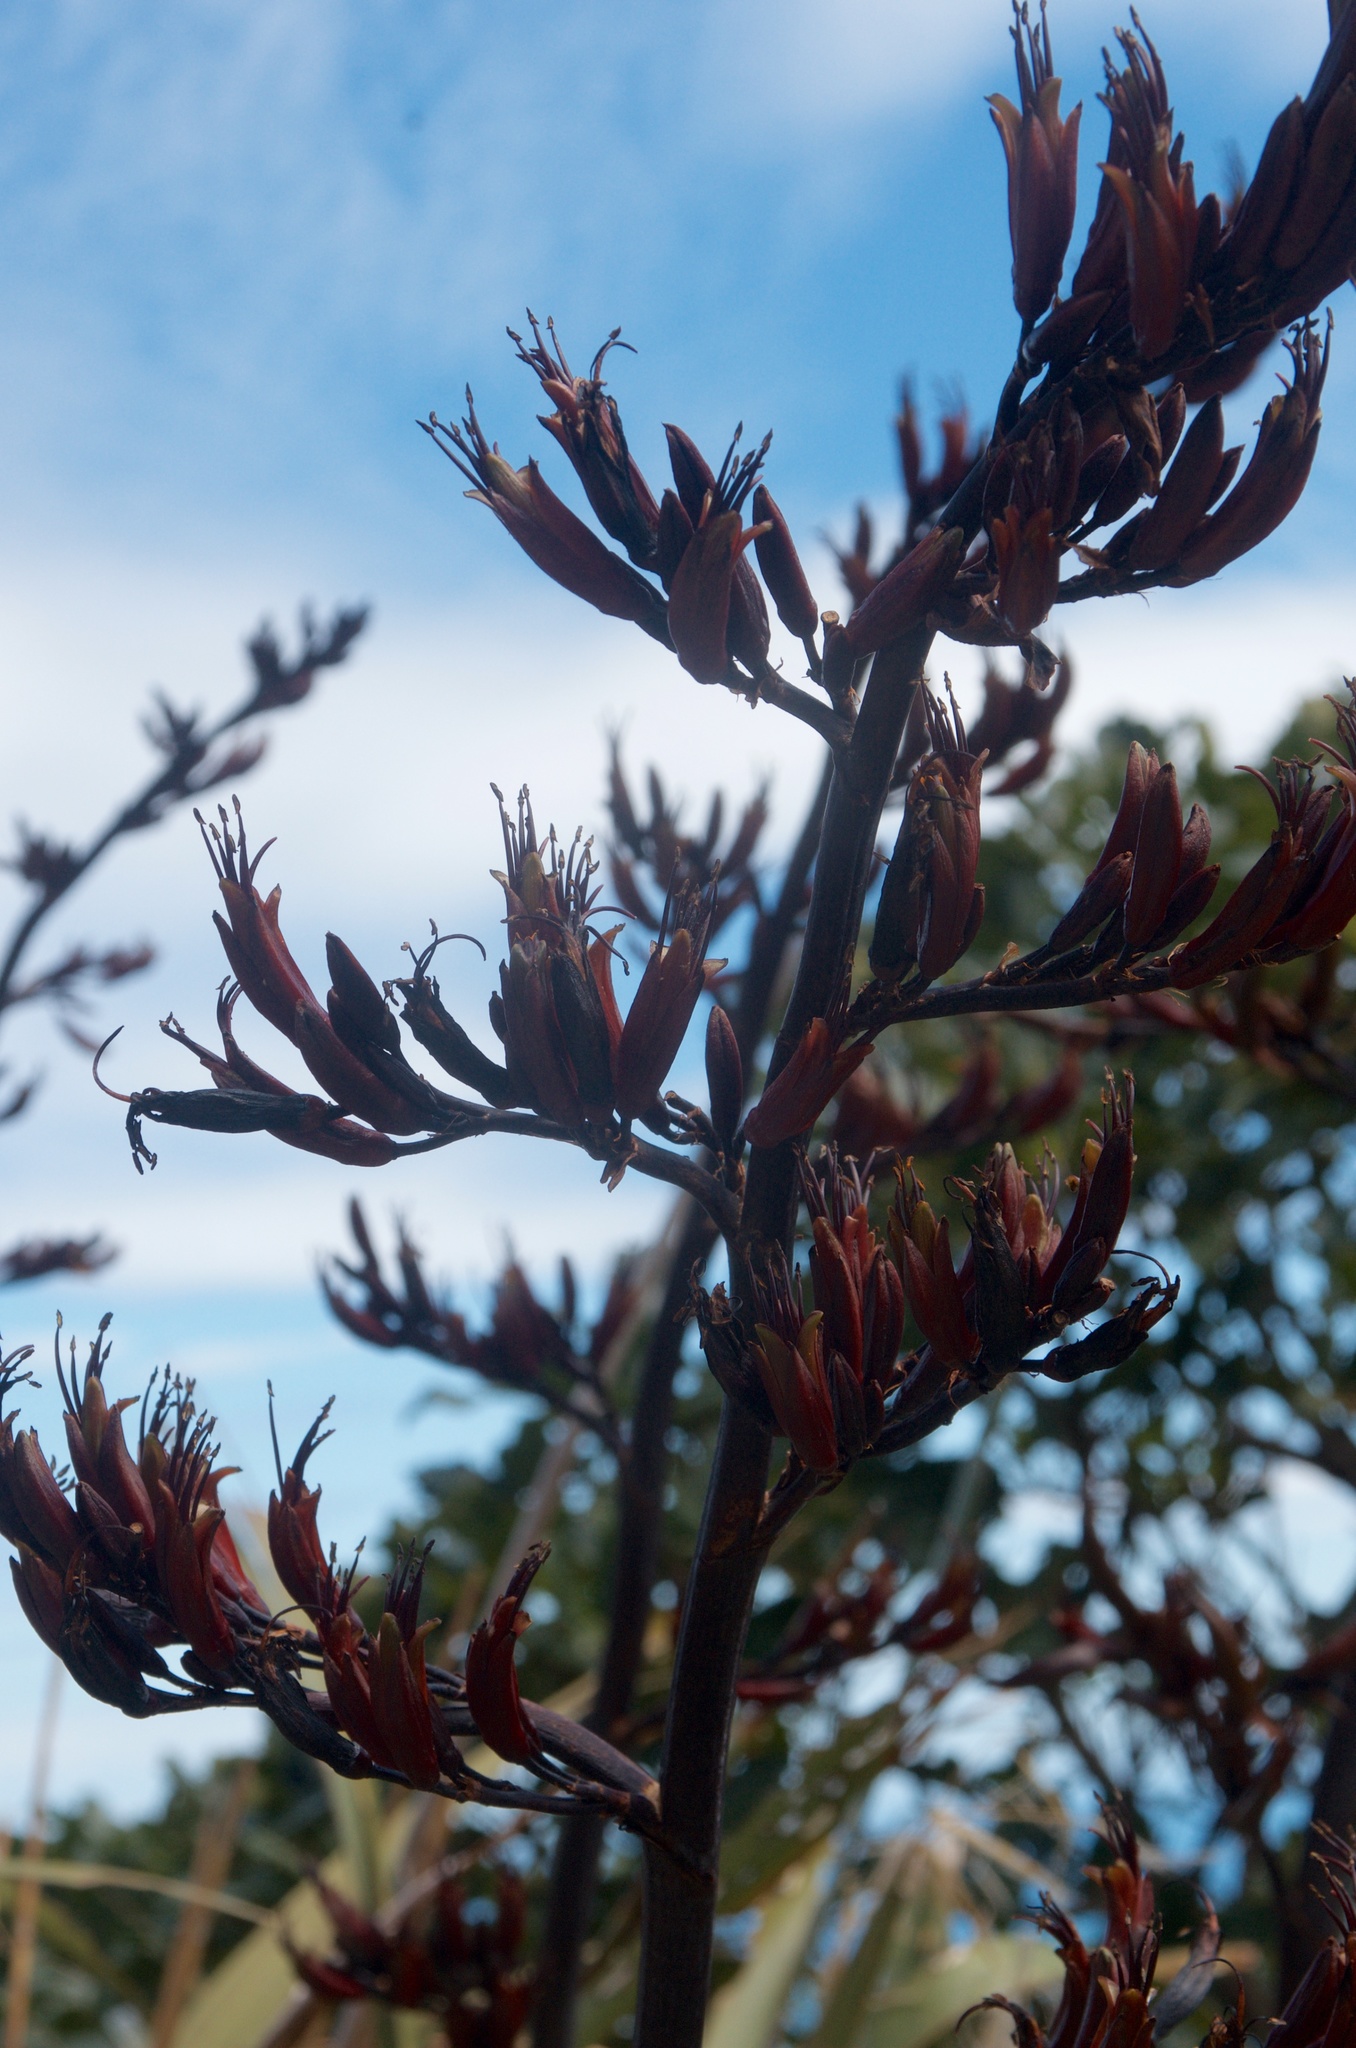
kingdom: Plantae
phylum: Tracheophyta
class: Liliopsida
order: Asparagales
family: Asphodelaceae
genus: Phormium
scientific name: Phormium tenax
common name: New zealand flax
